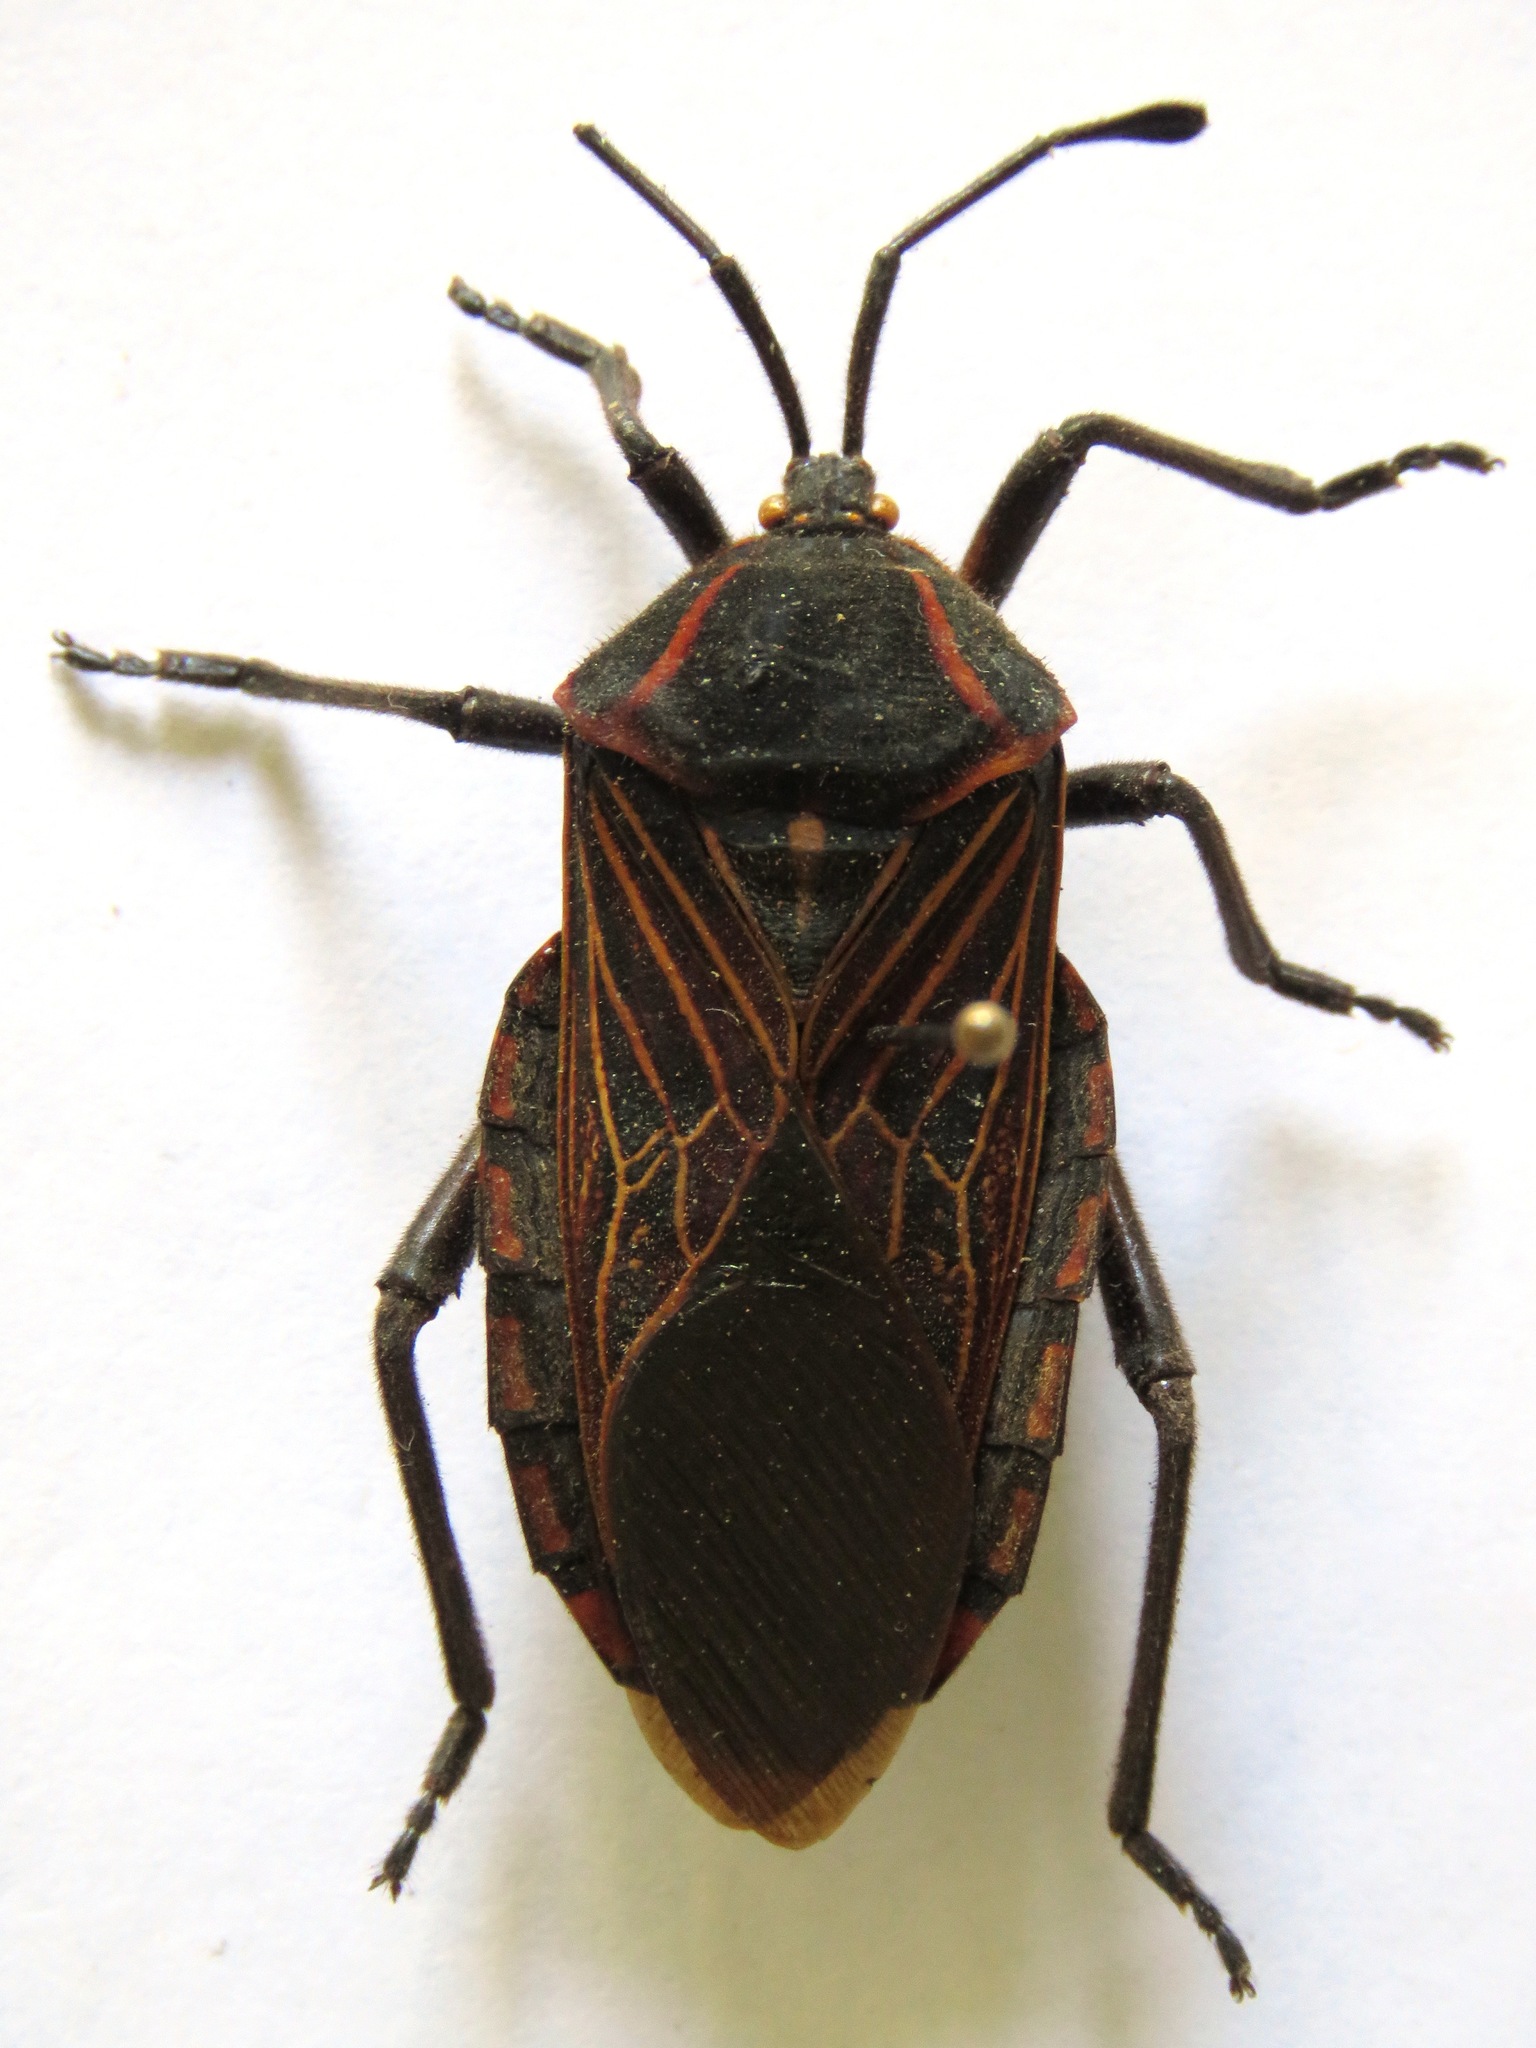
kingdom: Animalia
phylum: Arthropoda
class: Insecta
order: Hemiptera
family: Coreidae
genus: Pachylis
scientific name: Pachylis pharaonis
